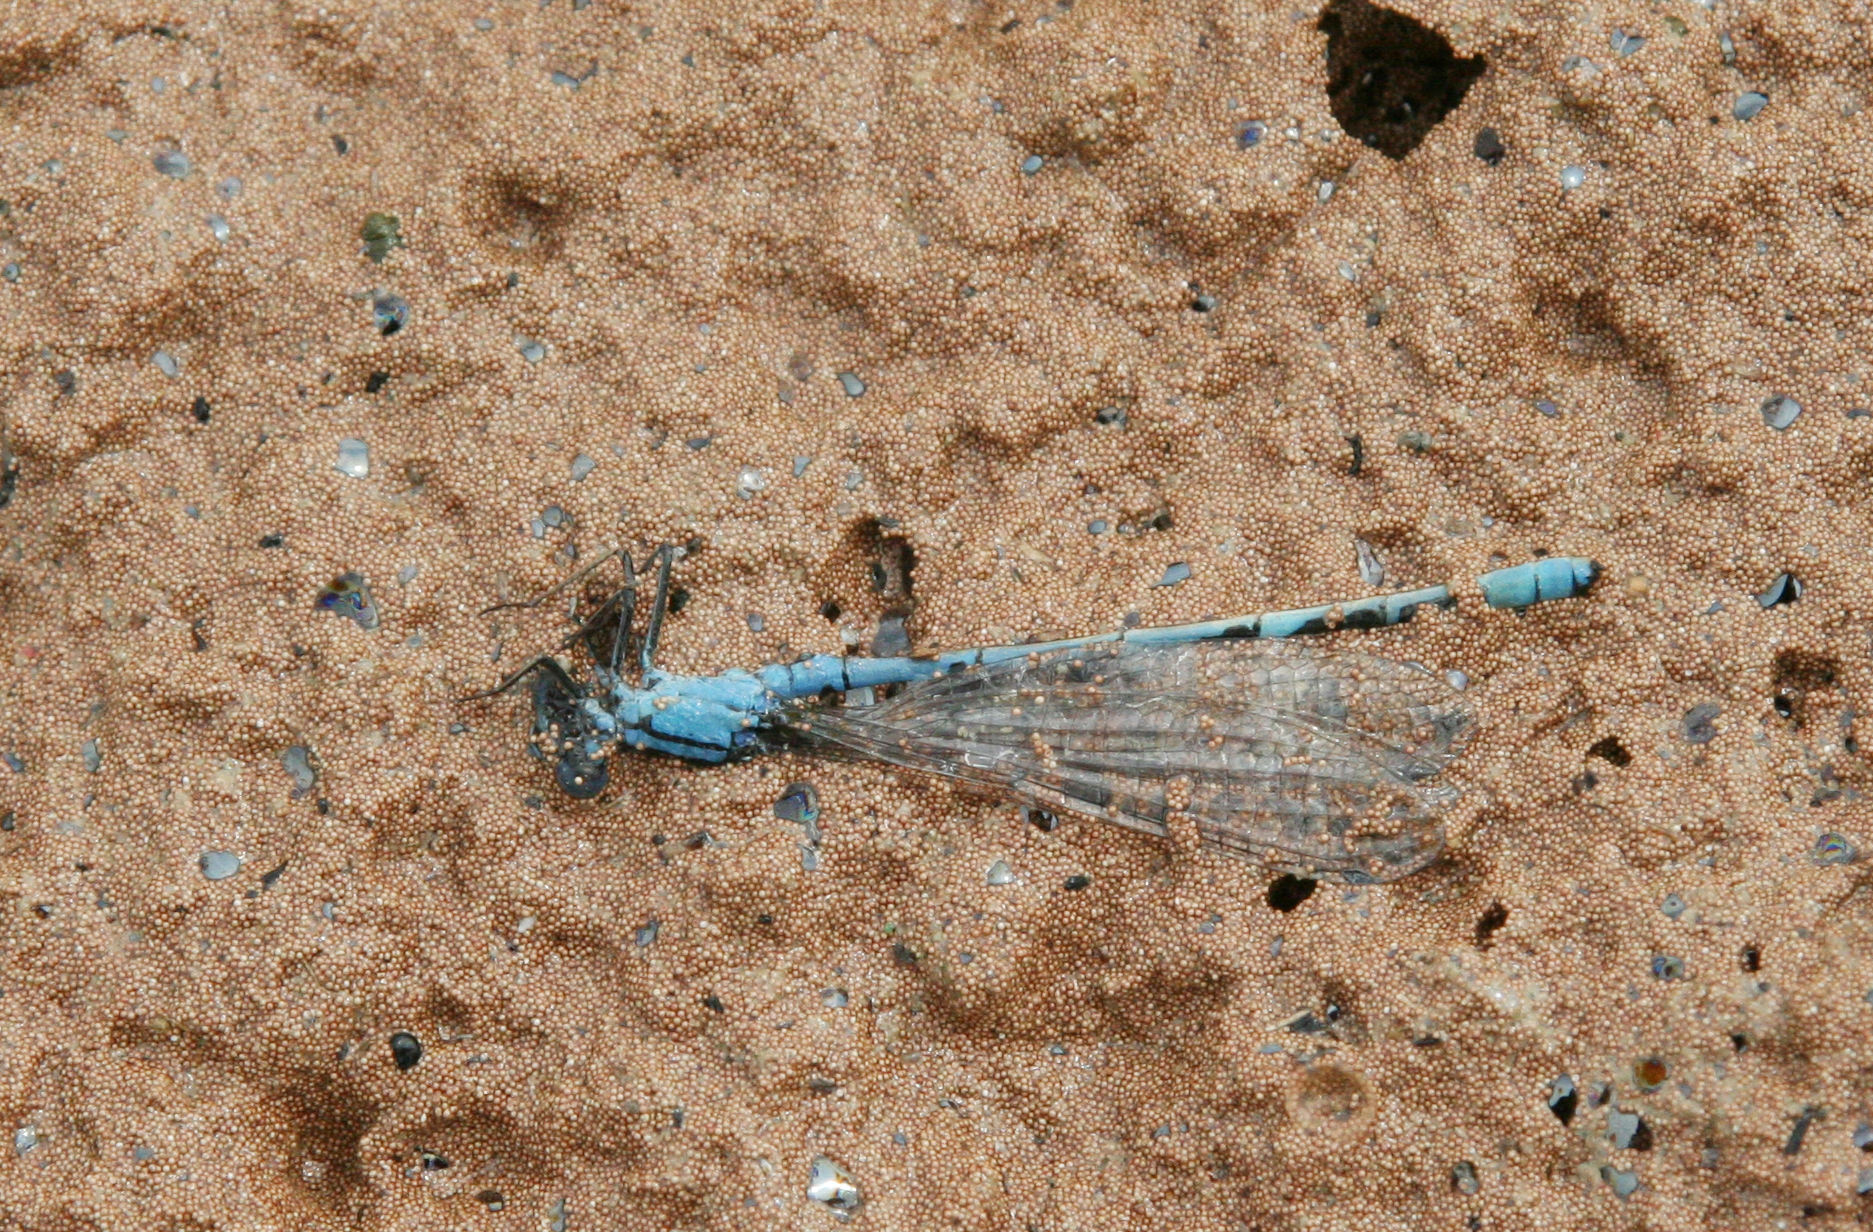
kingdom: Animalia
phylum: Arthropoda
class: Insecta
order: Odonata
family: Coenagrionidae
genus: Enallagma
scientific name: Enallagma cyathigerum
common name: Common blue damselfly
